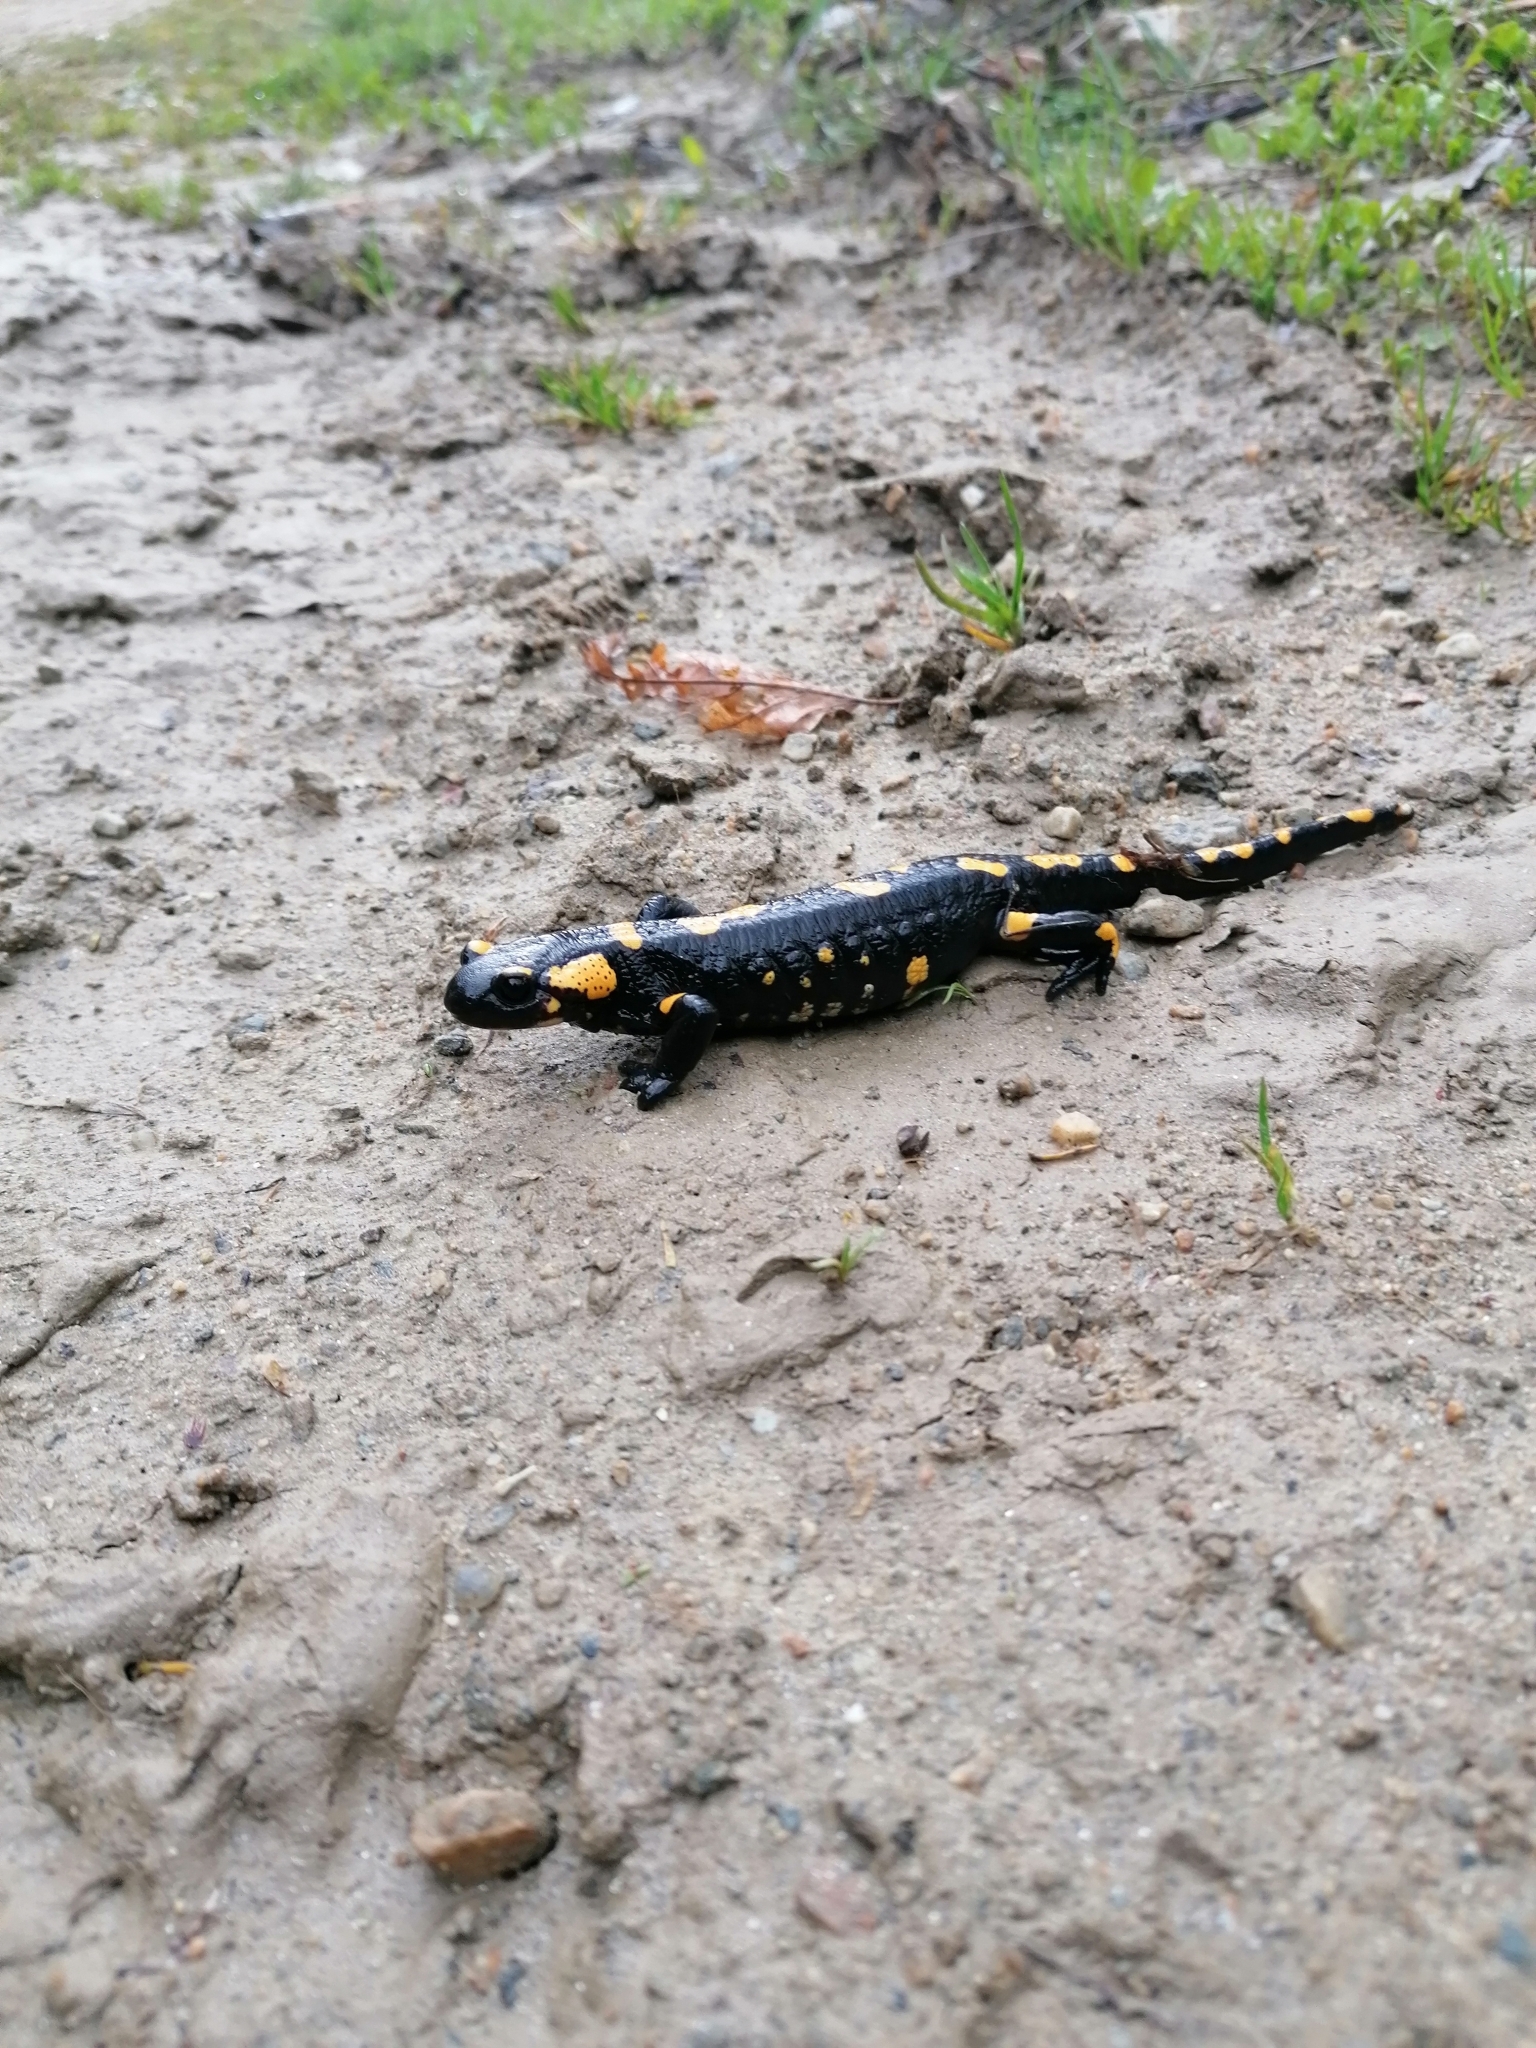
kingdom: Animalia
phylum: Chordata
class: Amphibia
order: Caudata
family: Salamandridae
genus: Salamandra
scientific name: Salamandra salamandra
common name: Fire salamander
